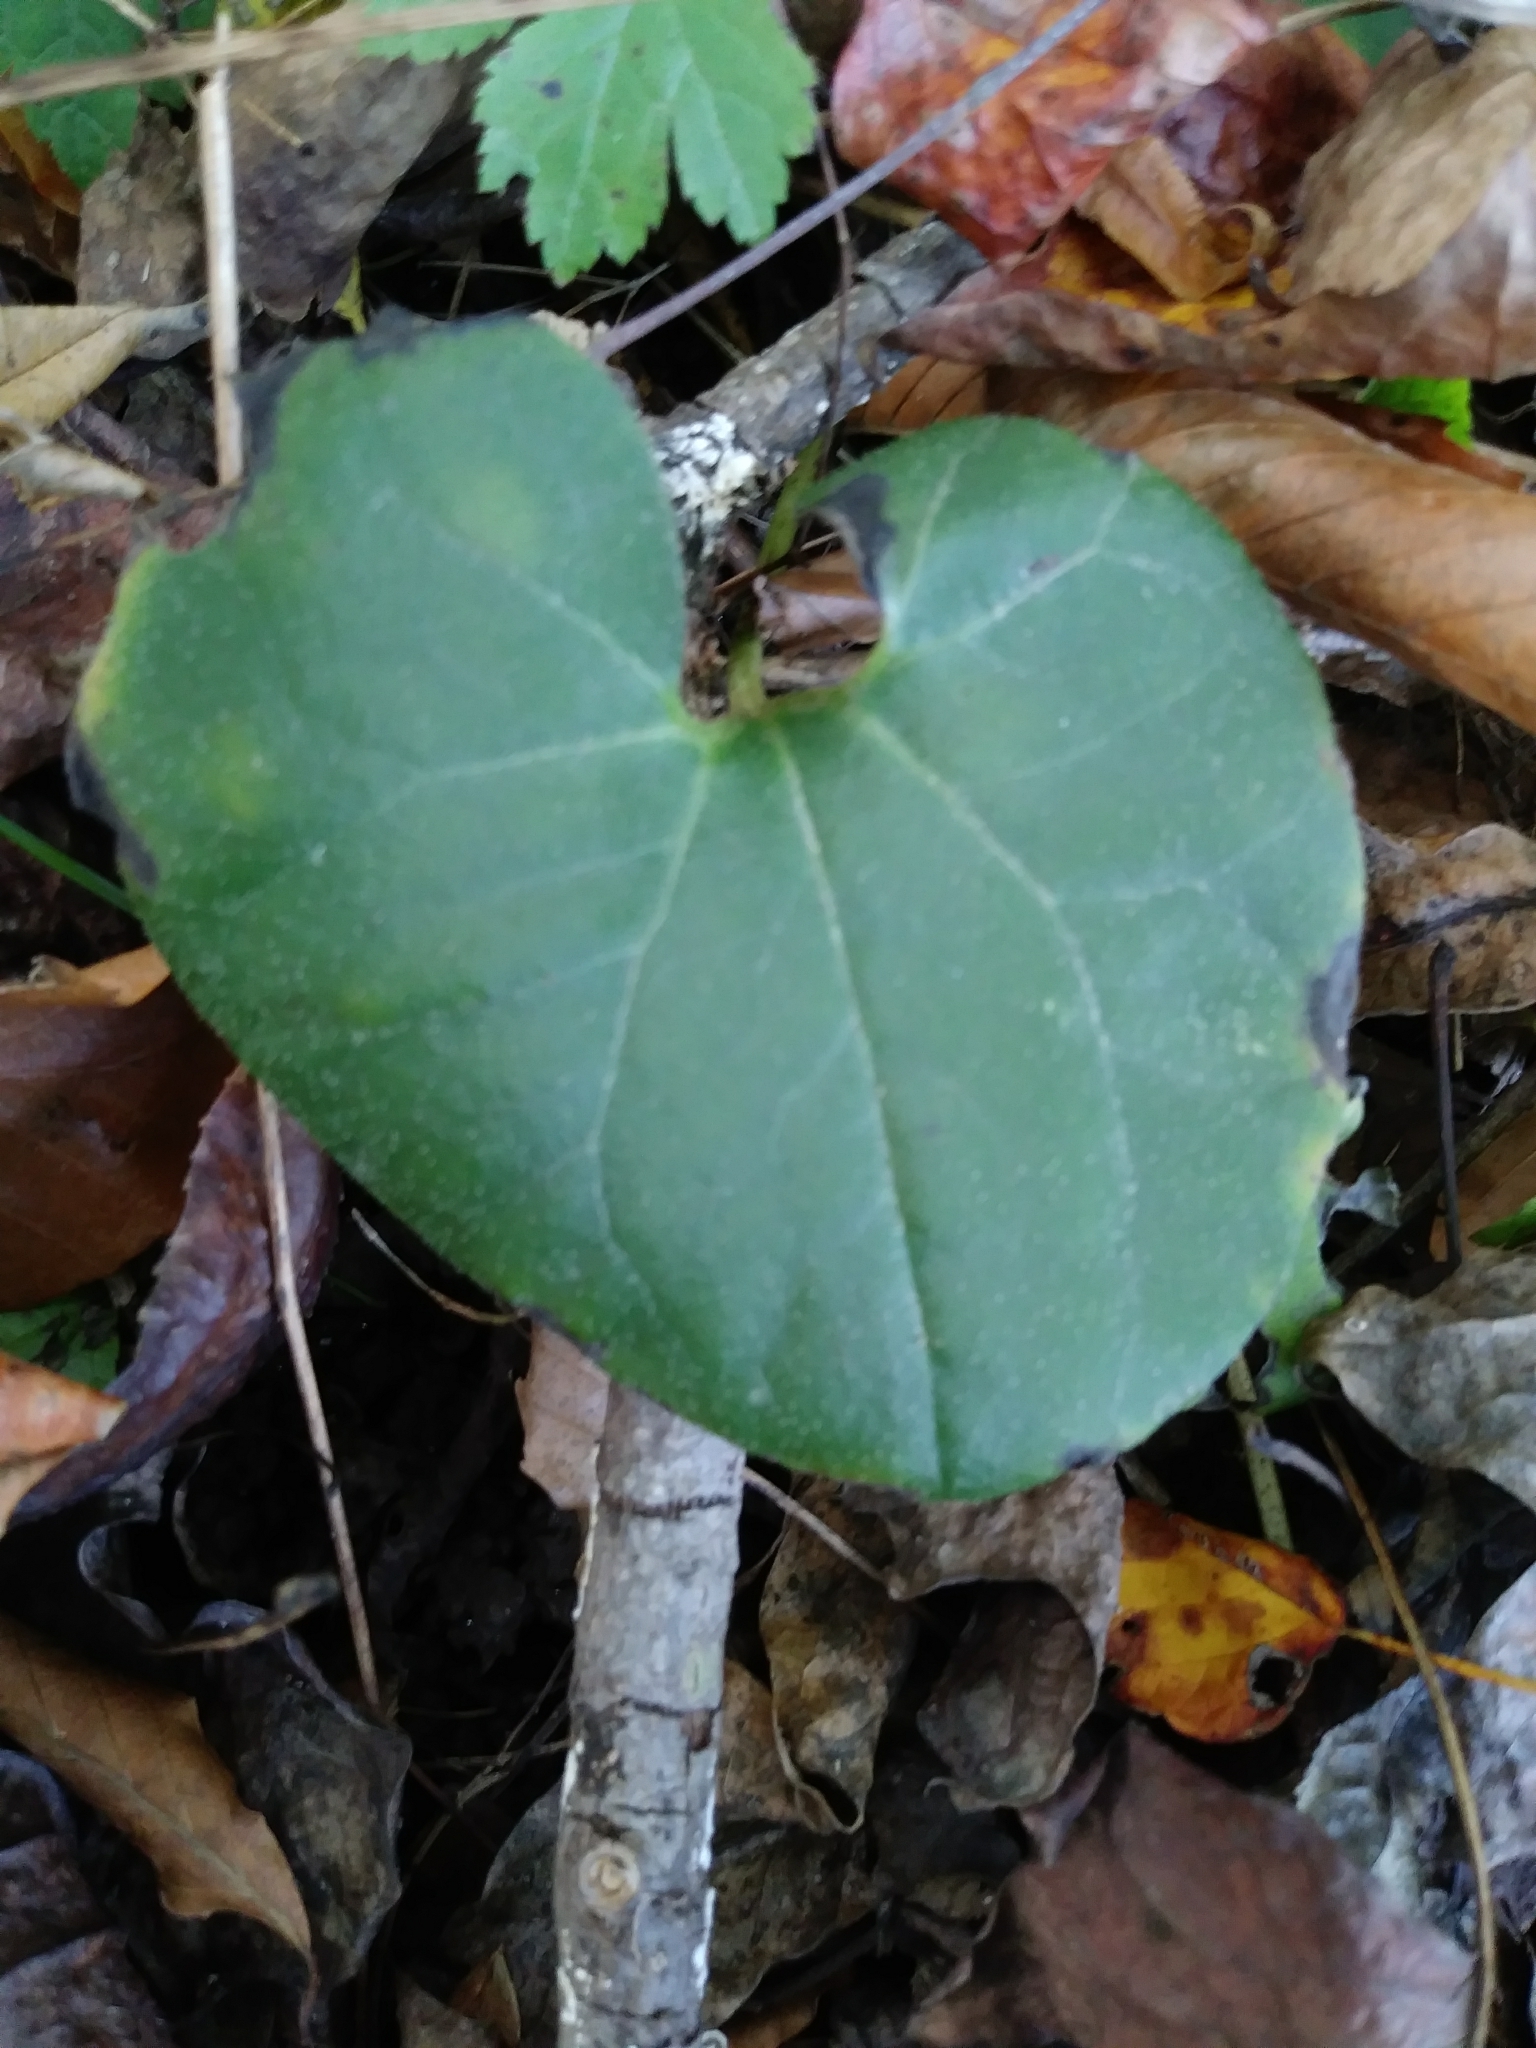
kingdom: Plantae
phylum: Tracheophyta
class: Magnoliopsida
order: Piperales
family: Aristolochiaceae
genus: Asarum
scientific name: Asarum canadense
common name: Wild ginger
